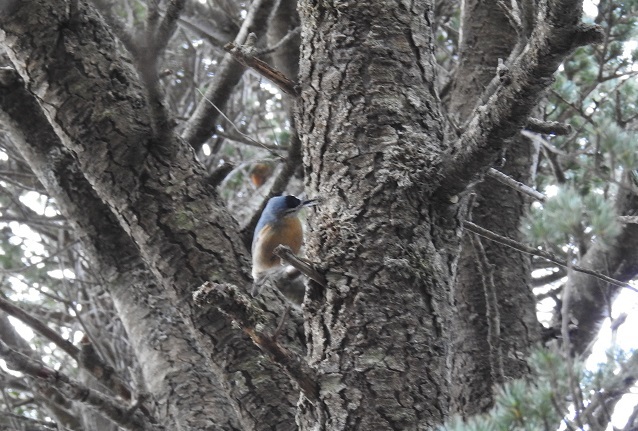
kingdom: Animalia
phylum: Chordata
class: Aves
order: Passeriformes
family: Sittidae
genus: Sitta
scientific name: Sitta ledanti
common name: Algerian nuthatch
